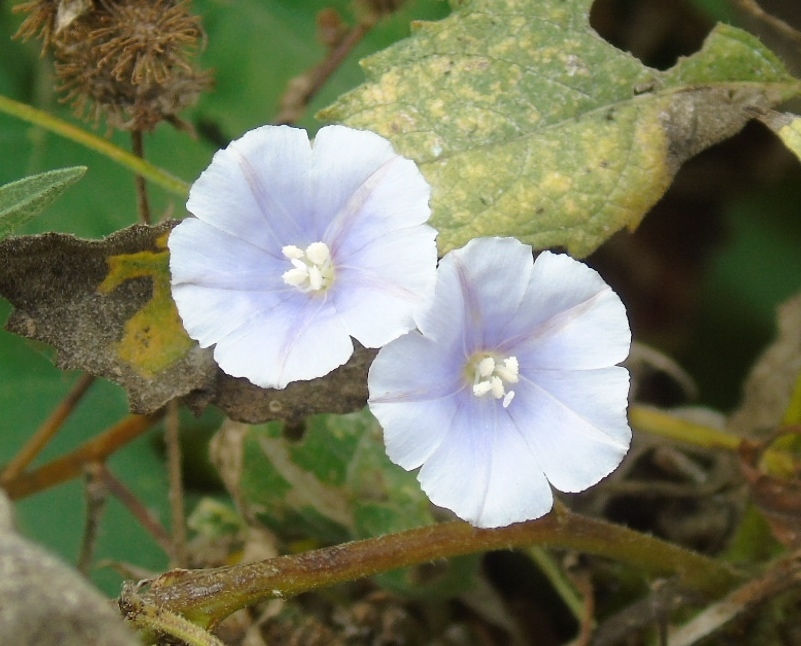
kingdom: Plantae
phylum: Tracheophyta
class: Magnoliopsida
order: Solanales
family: Convolvulaceae
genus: Jacquemontia
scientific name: Jacquemontia
